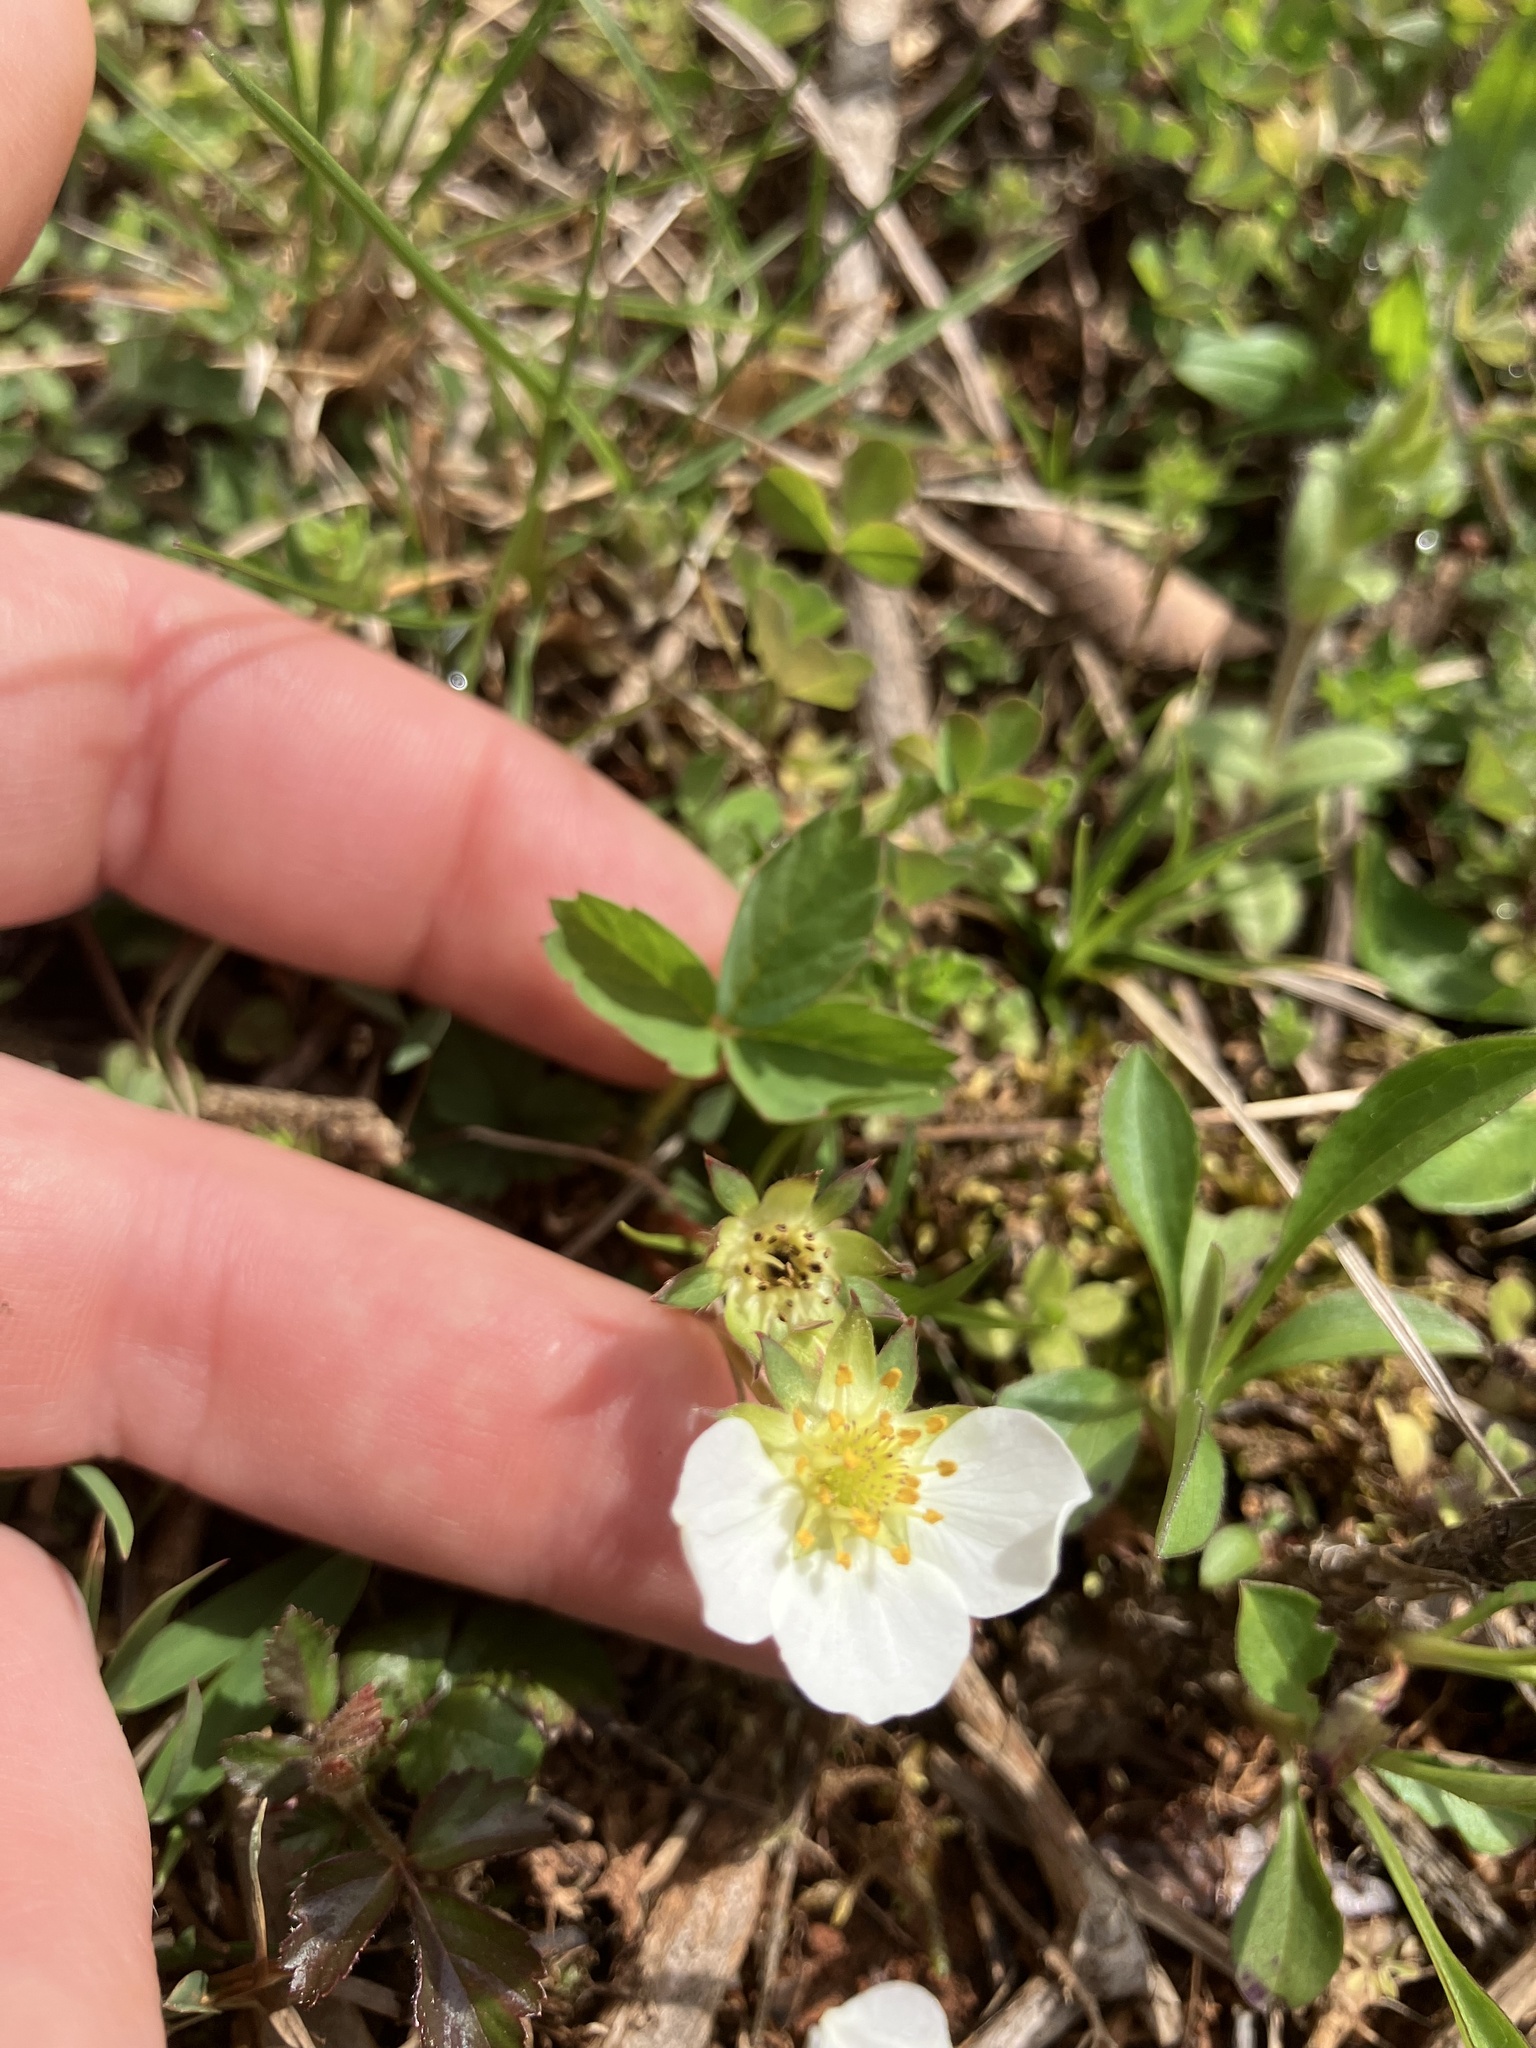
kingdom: Plantae
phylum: Tracheophyta
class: Magnoliopsida
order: Rosales
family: Rosaceae
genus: Fragaria
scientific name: Fragaria virginiana
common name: Thickleaved wild strawberry
